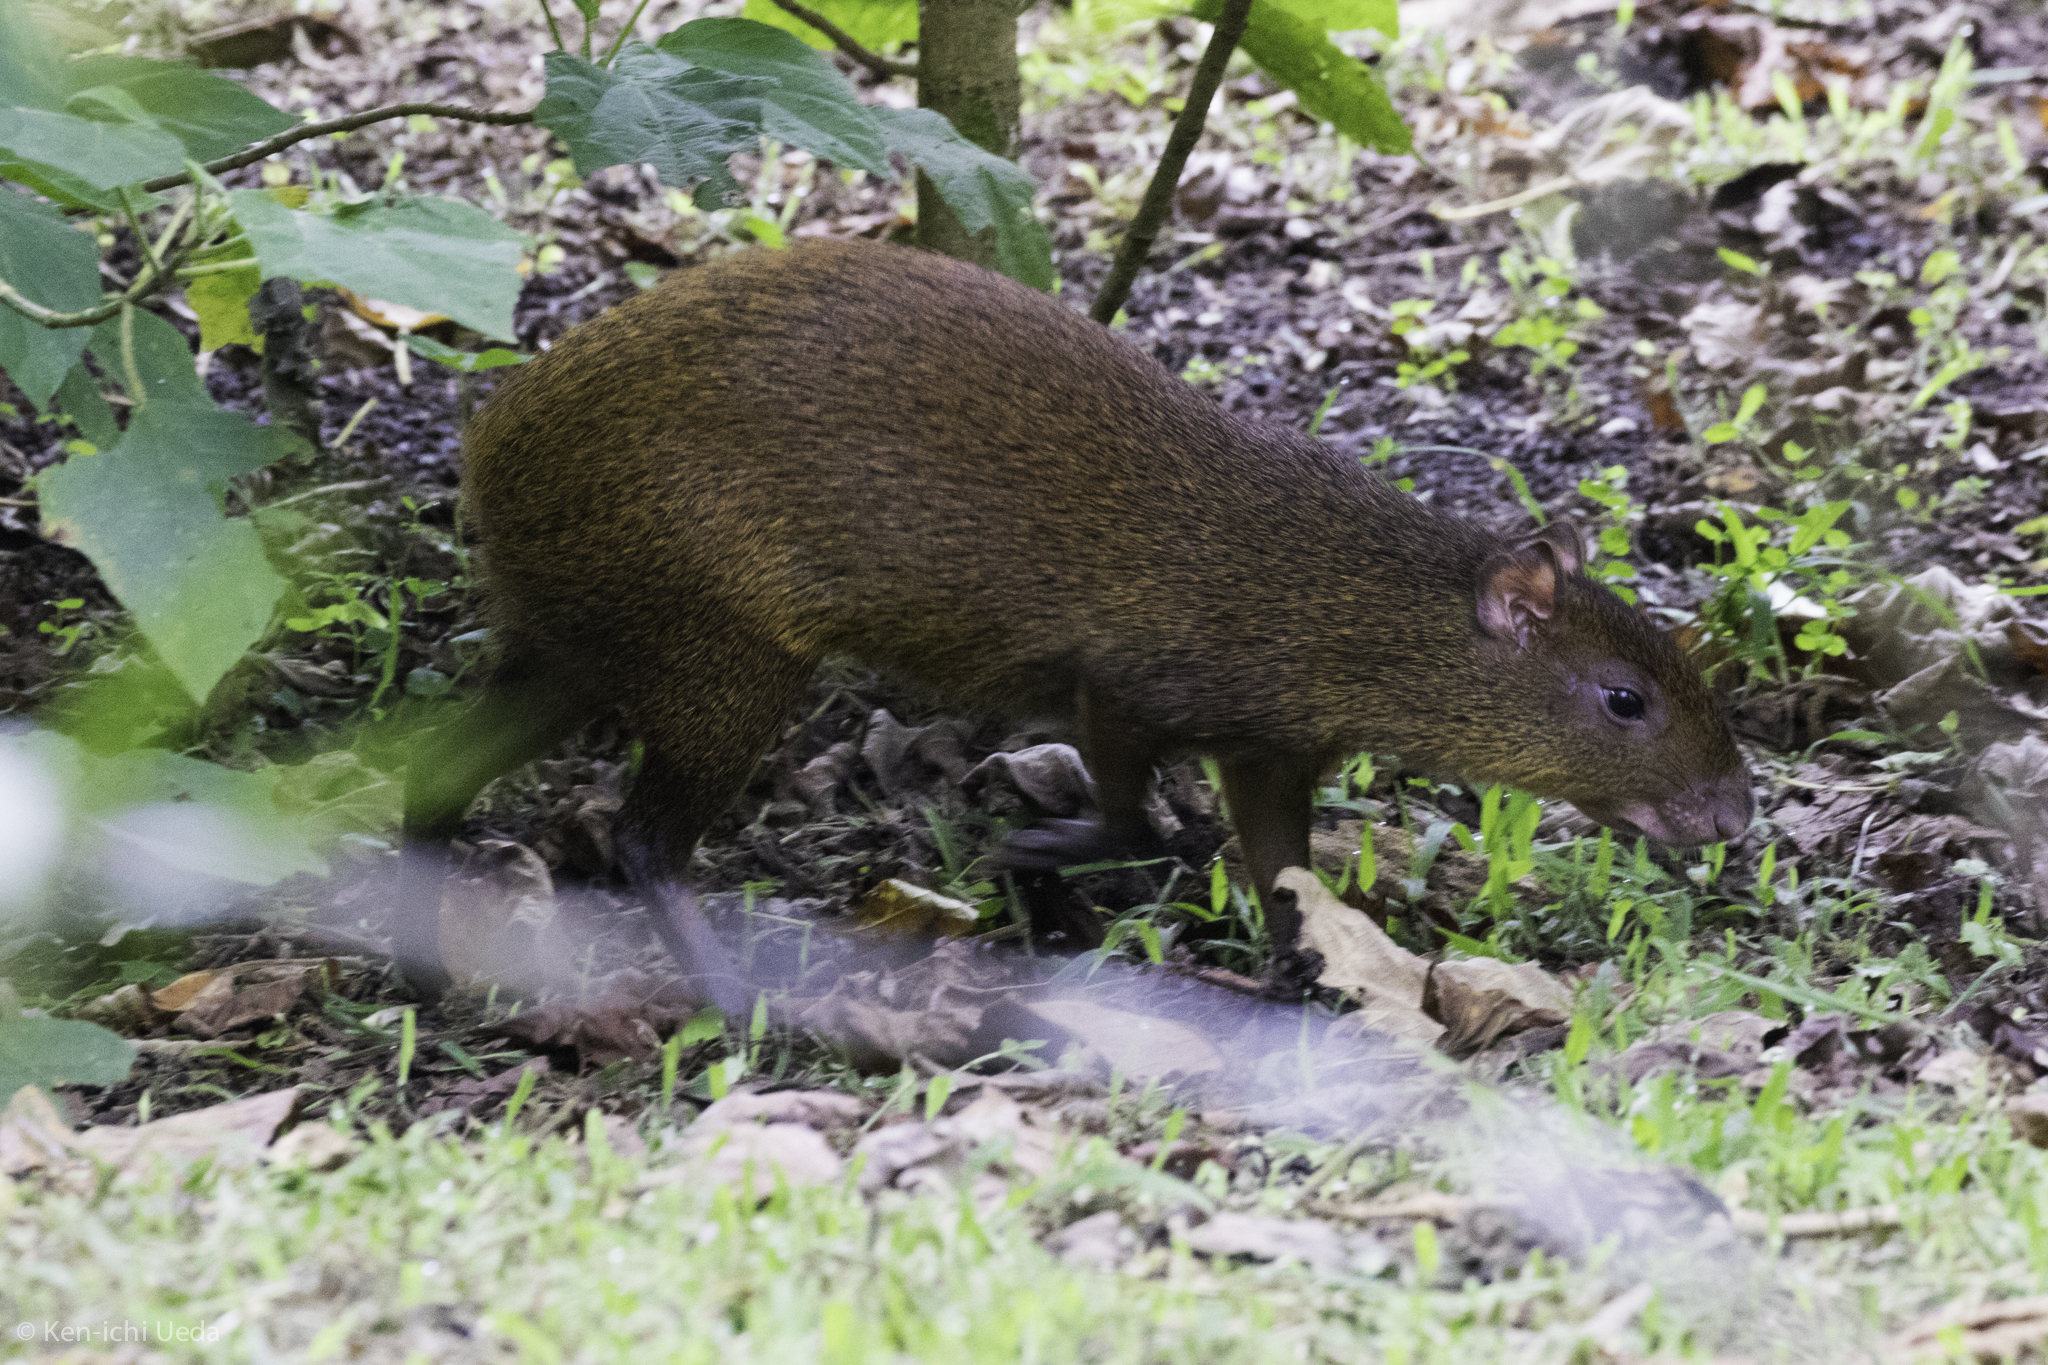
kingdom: Animalia
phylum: Chordata
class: Mammalia
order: Rodentia
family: Dasyproctidae
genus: Dasyprocta
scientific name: Dasyprocta punctata
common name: Central american agouti
